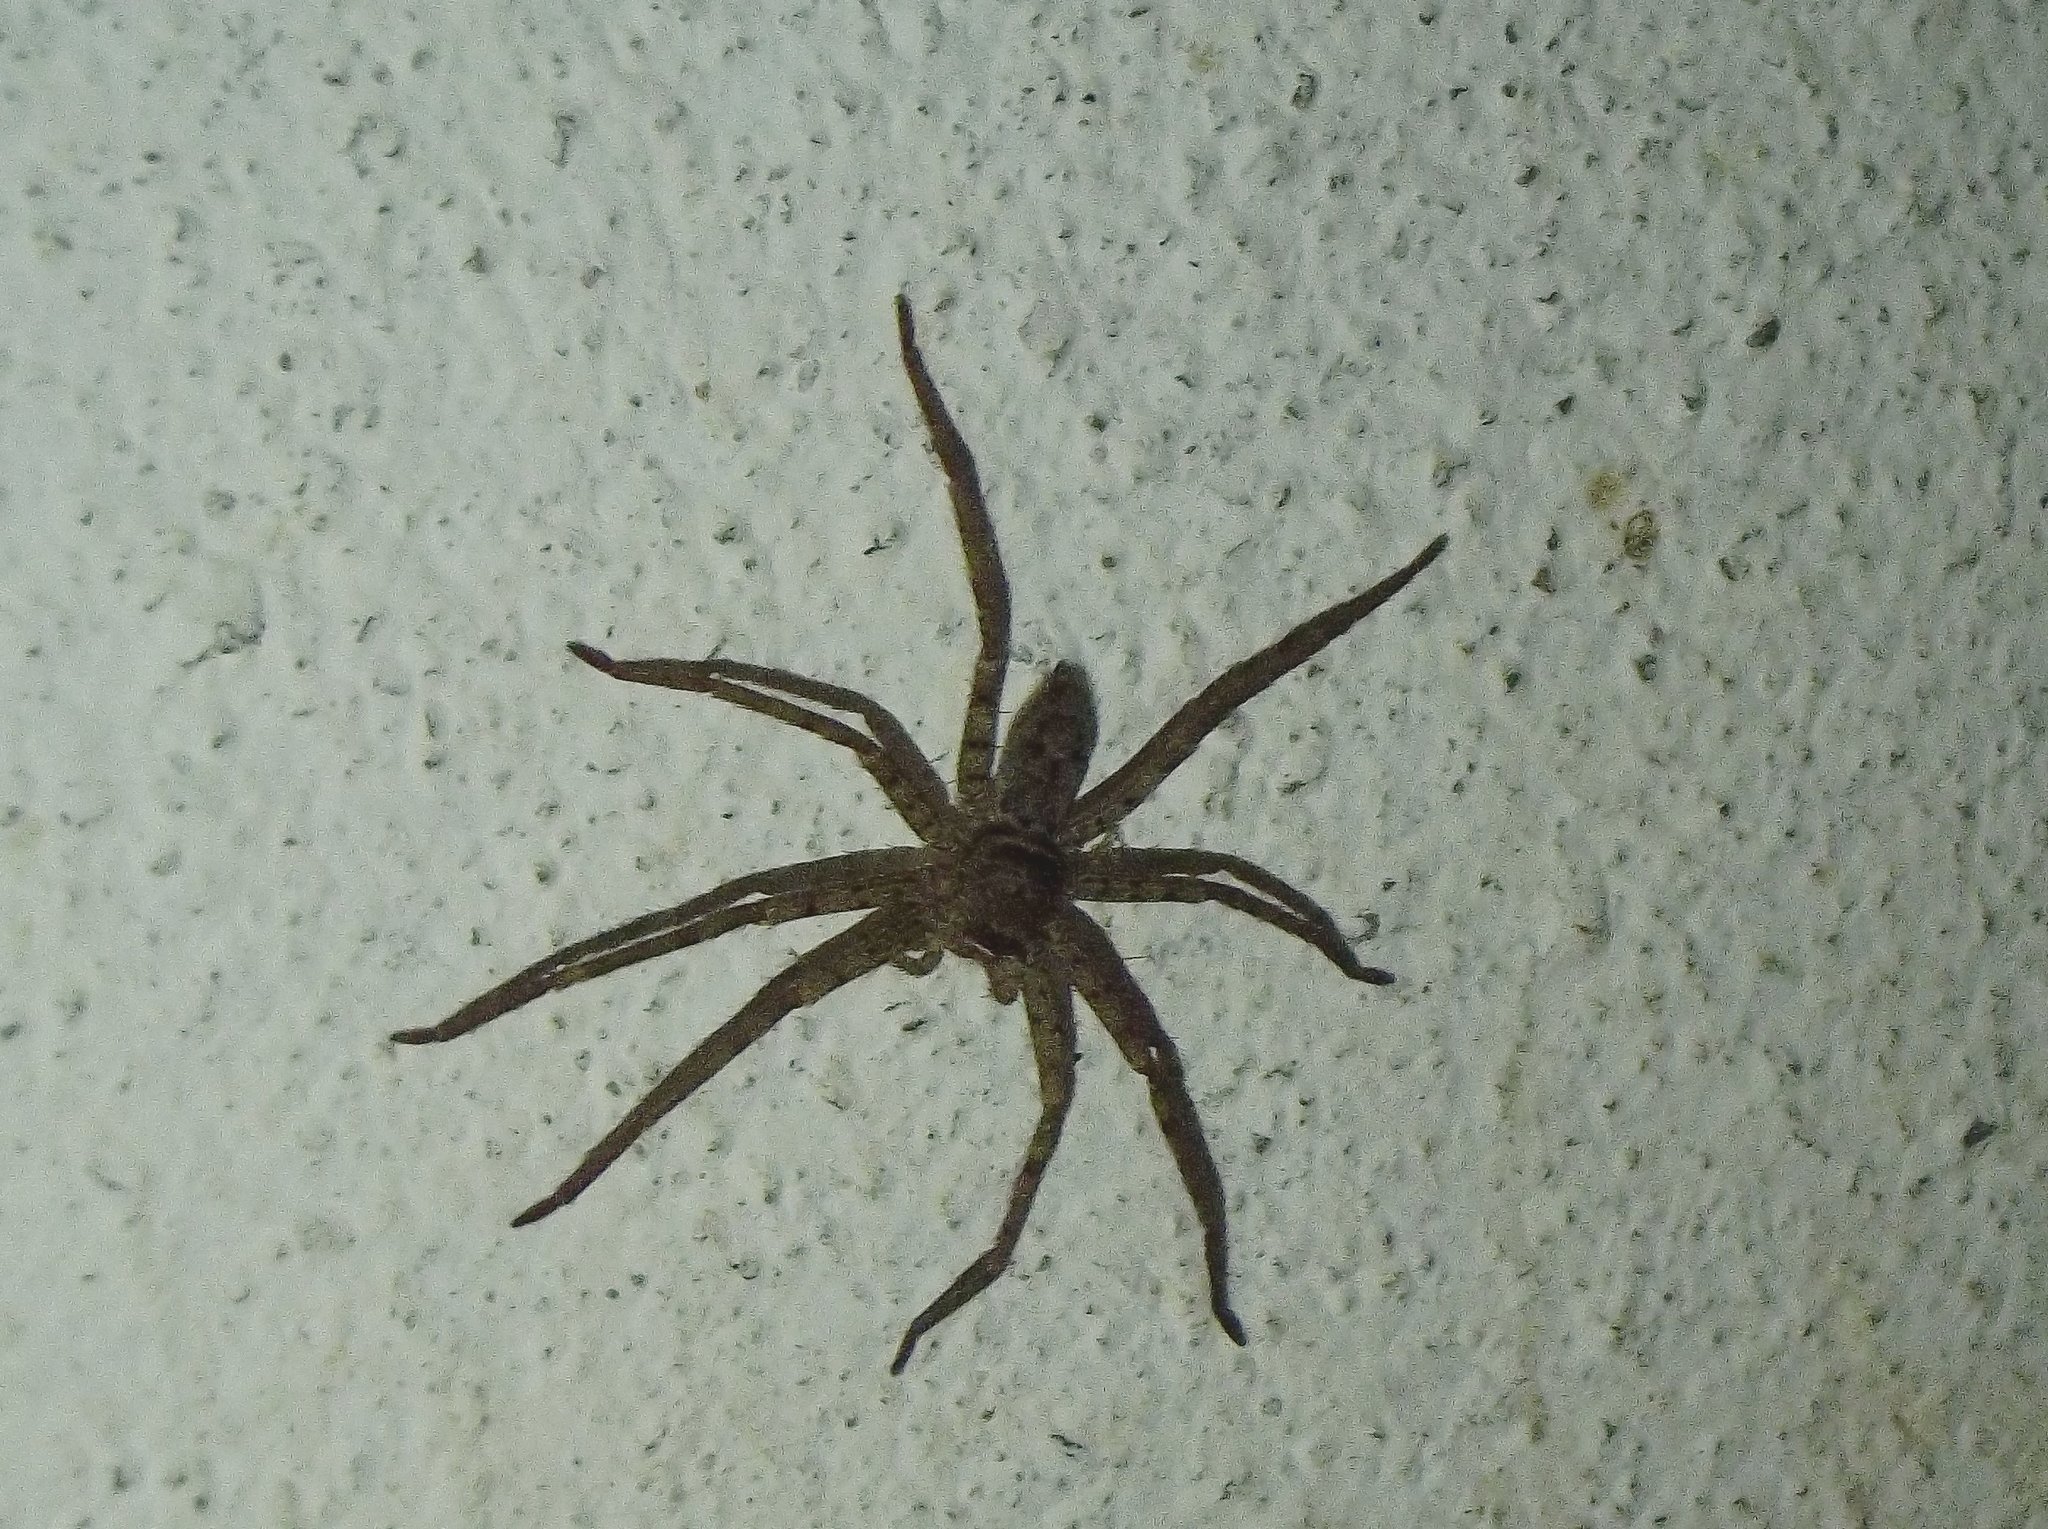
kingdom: Animalia
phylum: Arthropoda
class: Arachnida
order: Araneae
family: Sparassidae
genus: Heteropoda
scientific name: Heteropoda venatoria
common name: Huntsman spider
